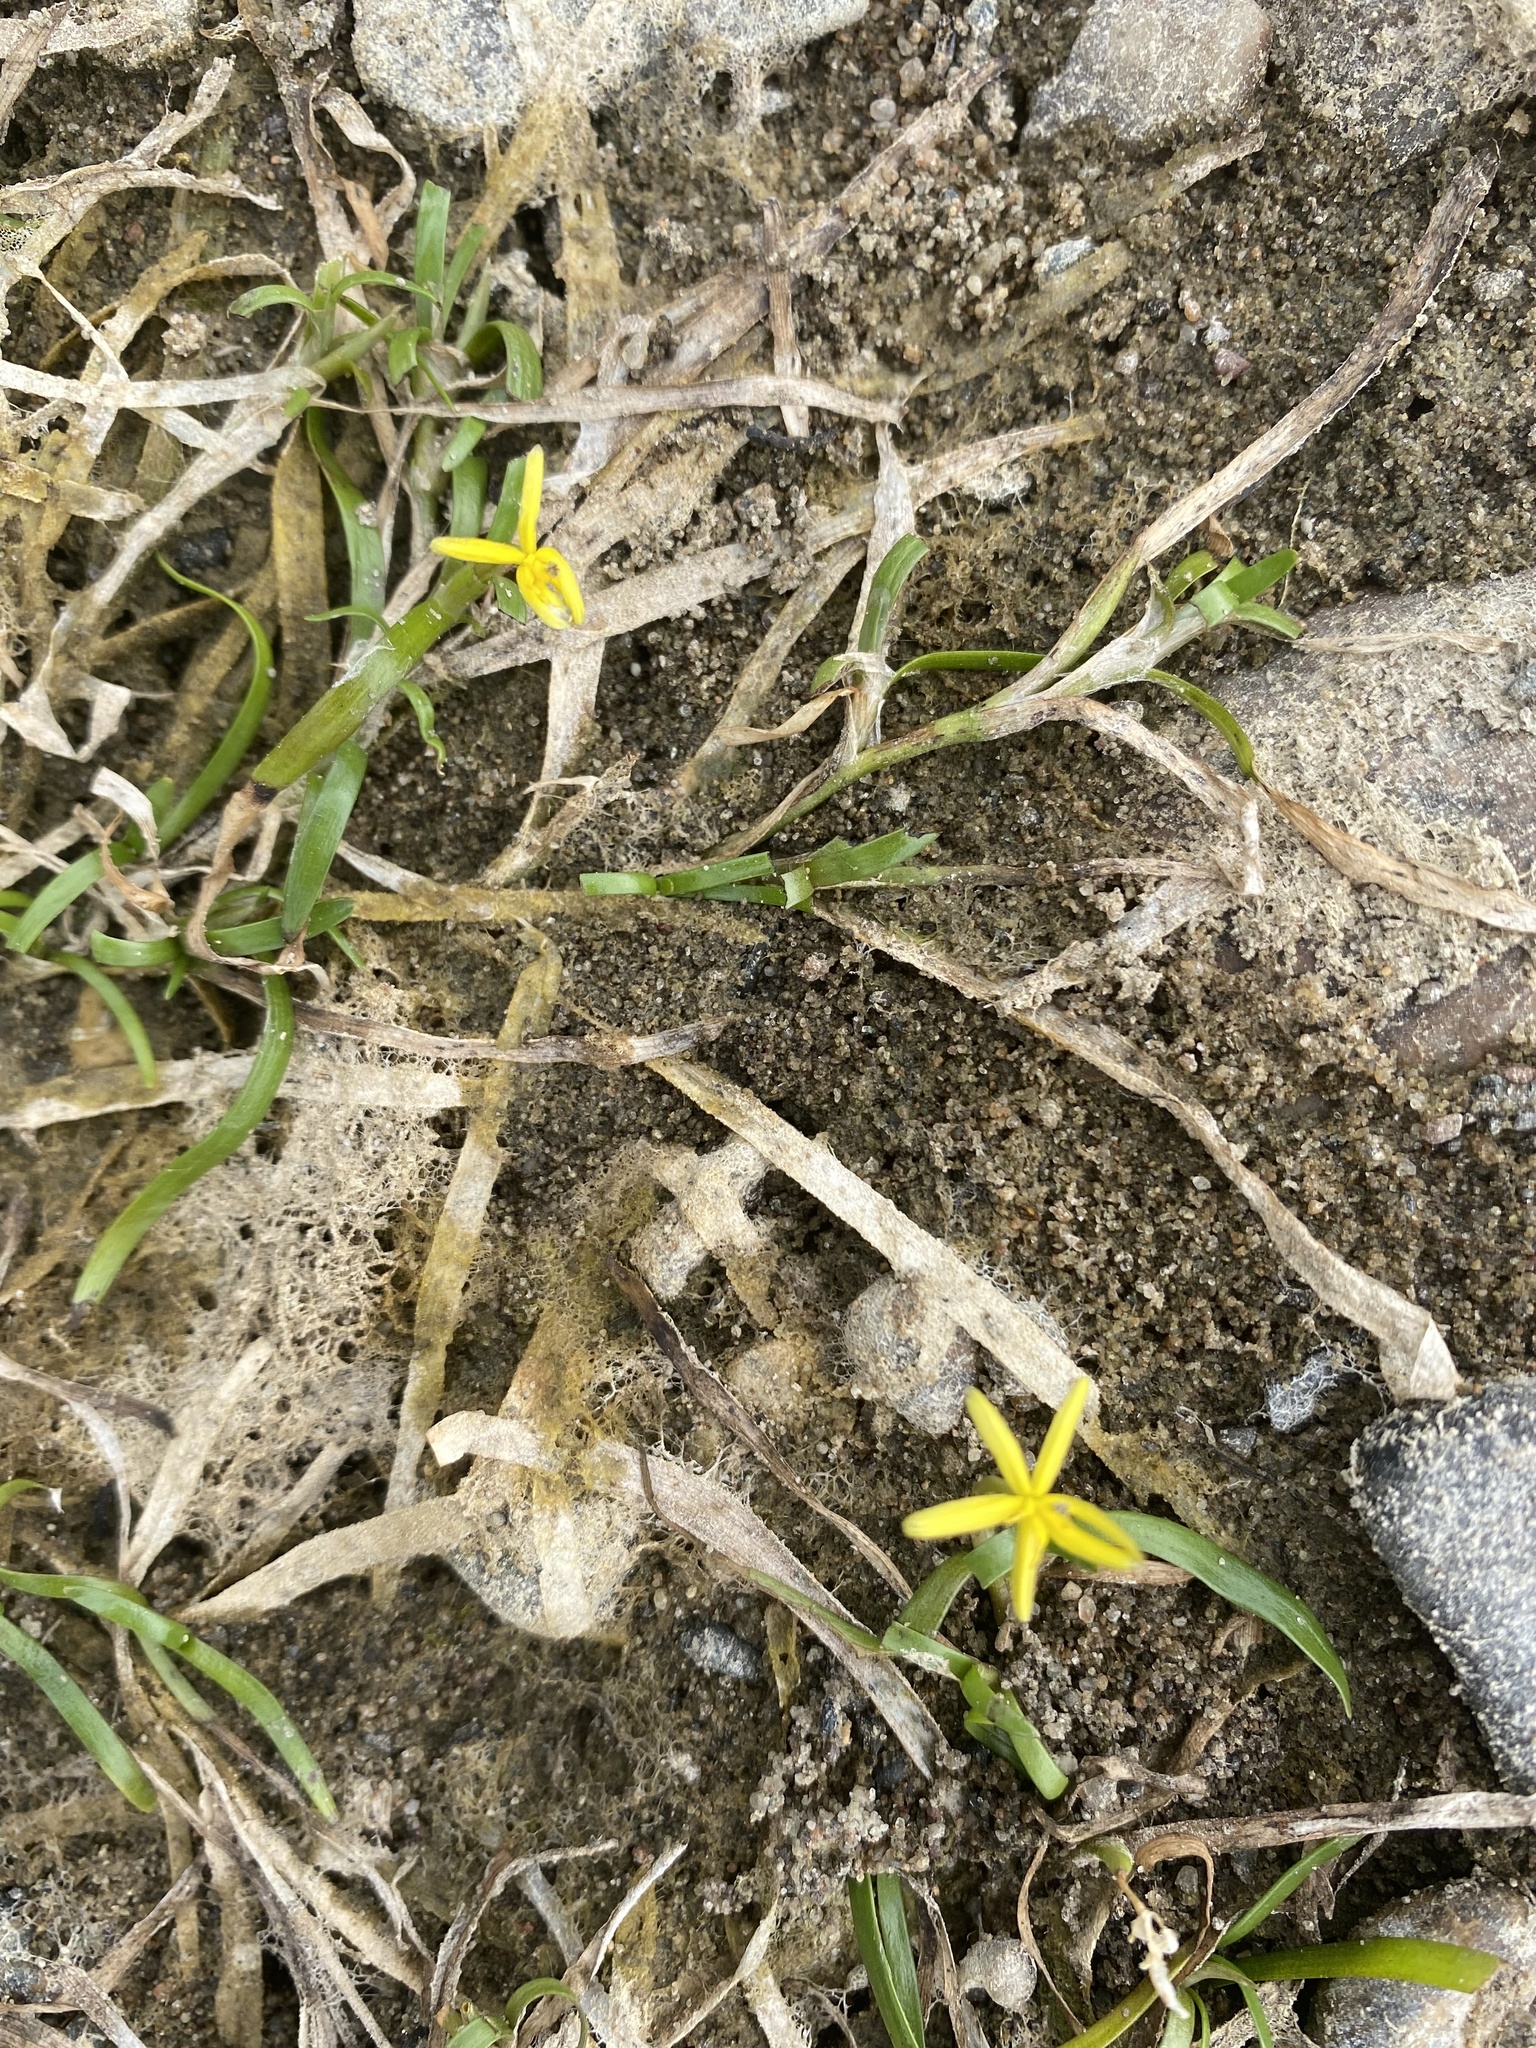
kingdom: Plantae
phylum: Tracheophyta
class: Liliopsida
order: Commelinales
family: Pontederiaceae
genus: Heteranthera
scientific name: Heteranthera dubia
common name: Grass-leaved mud plantain
